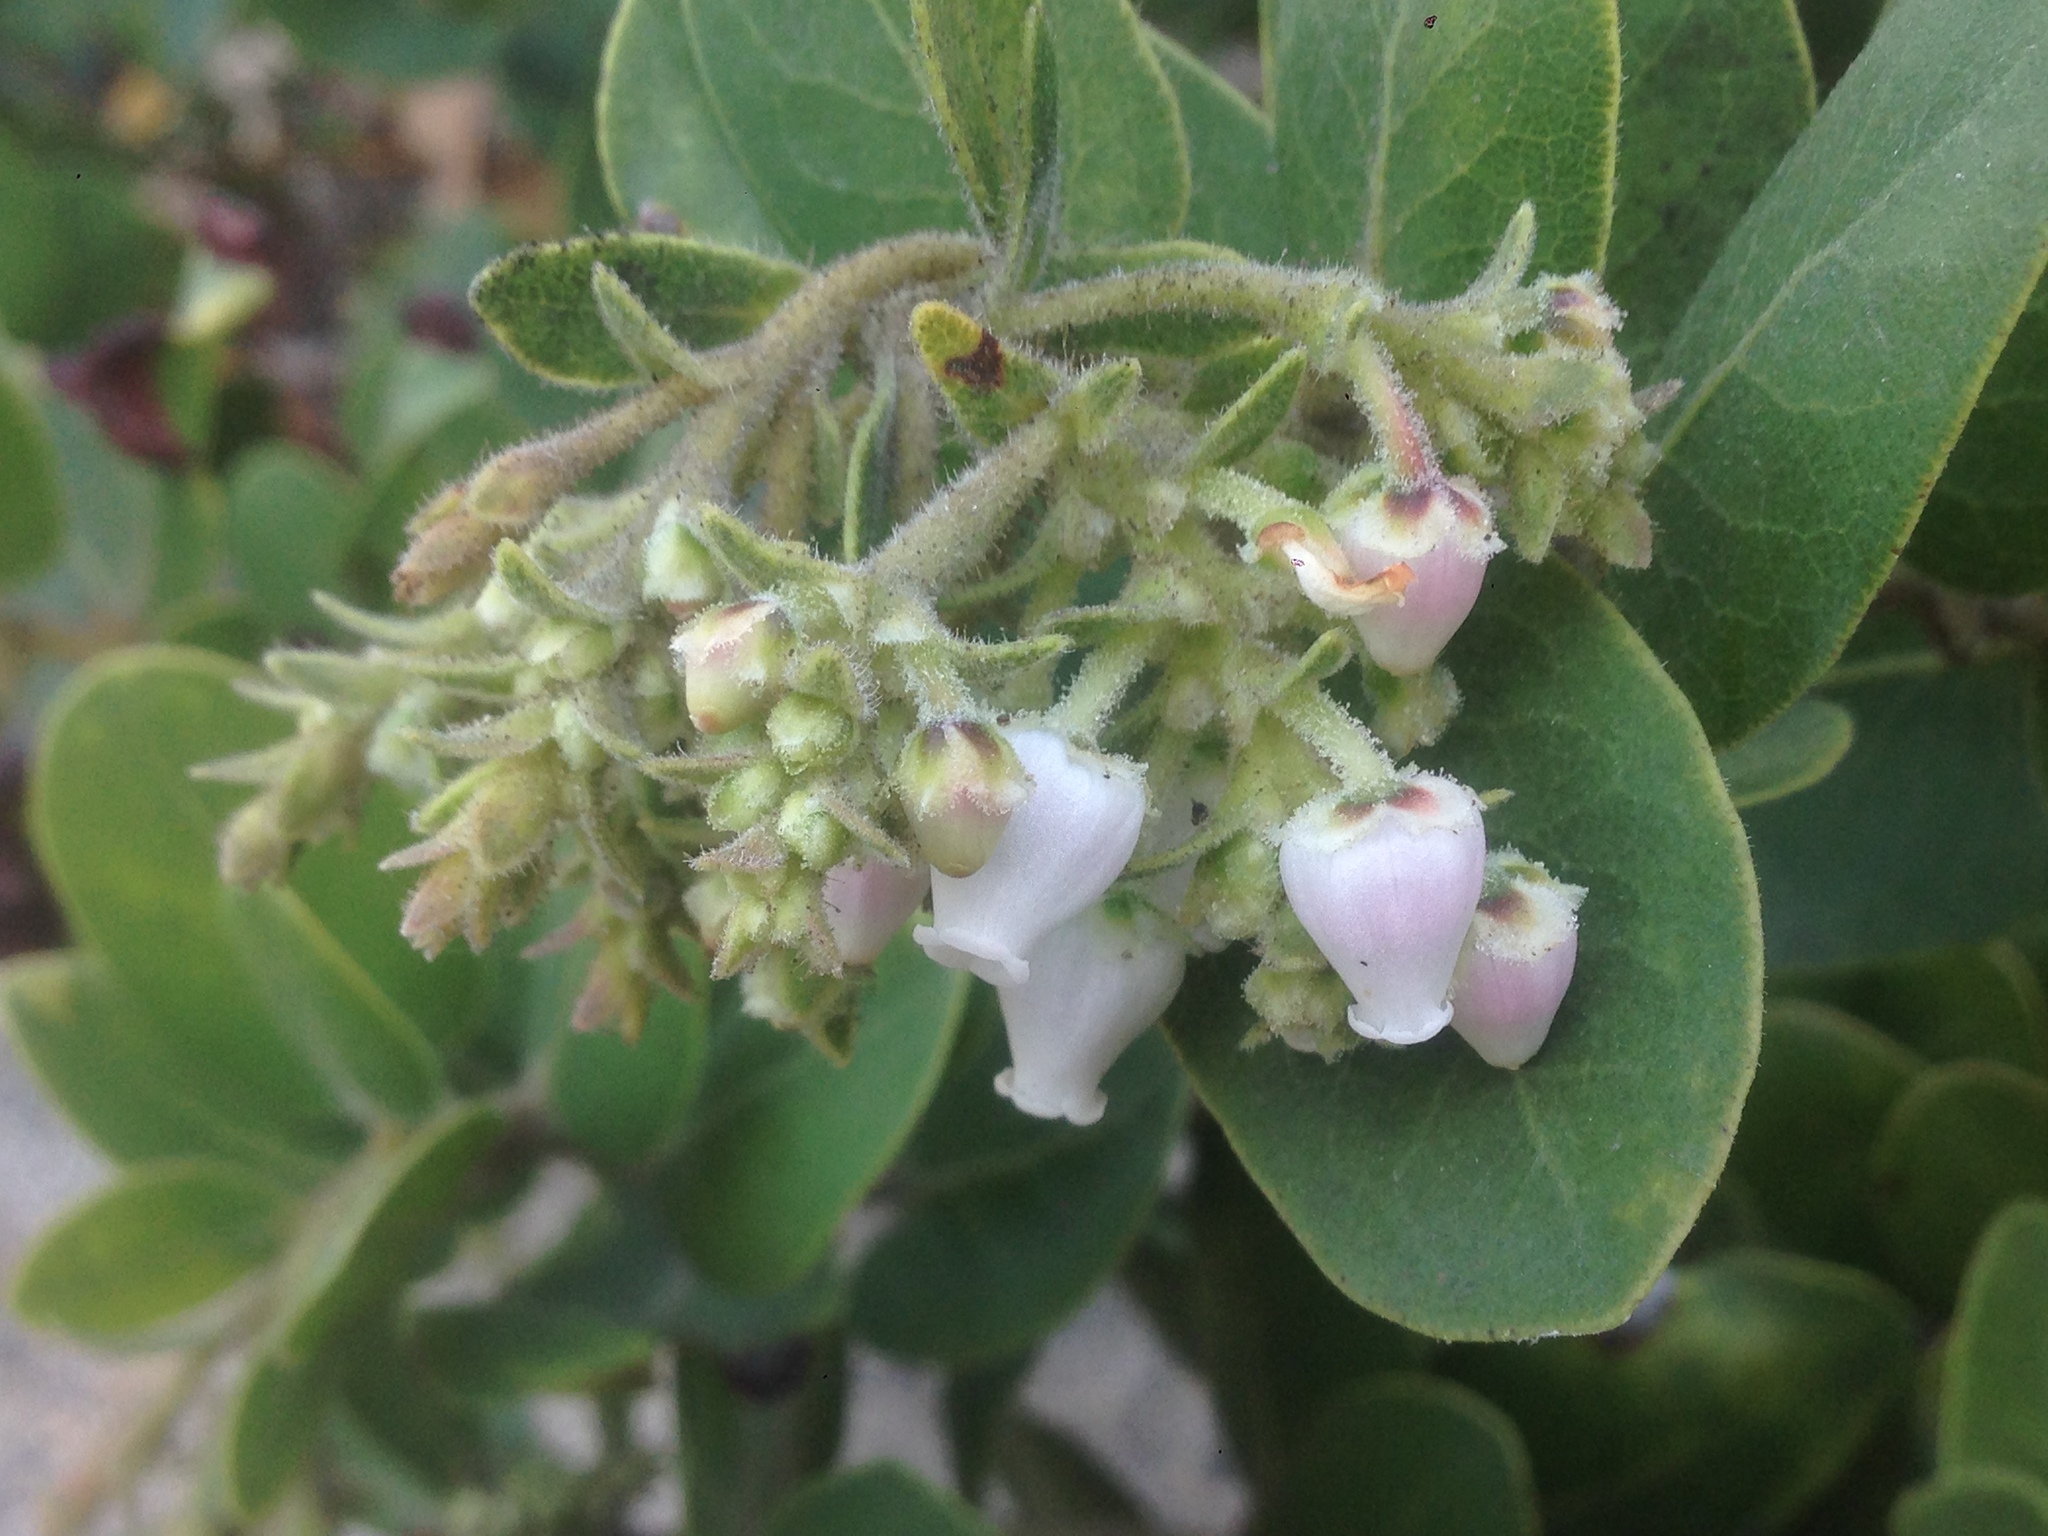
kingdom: Plantae
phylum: Tracheophyta
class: Magnoliopsida
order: Ericales
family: Ericaceae
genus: Arctostaphylos
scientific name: Arctostaphylos confertiflora
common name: Santa rosa island manzanita
